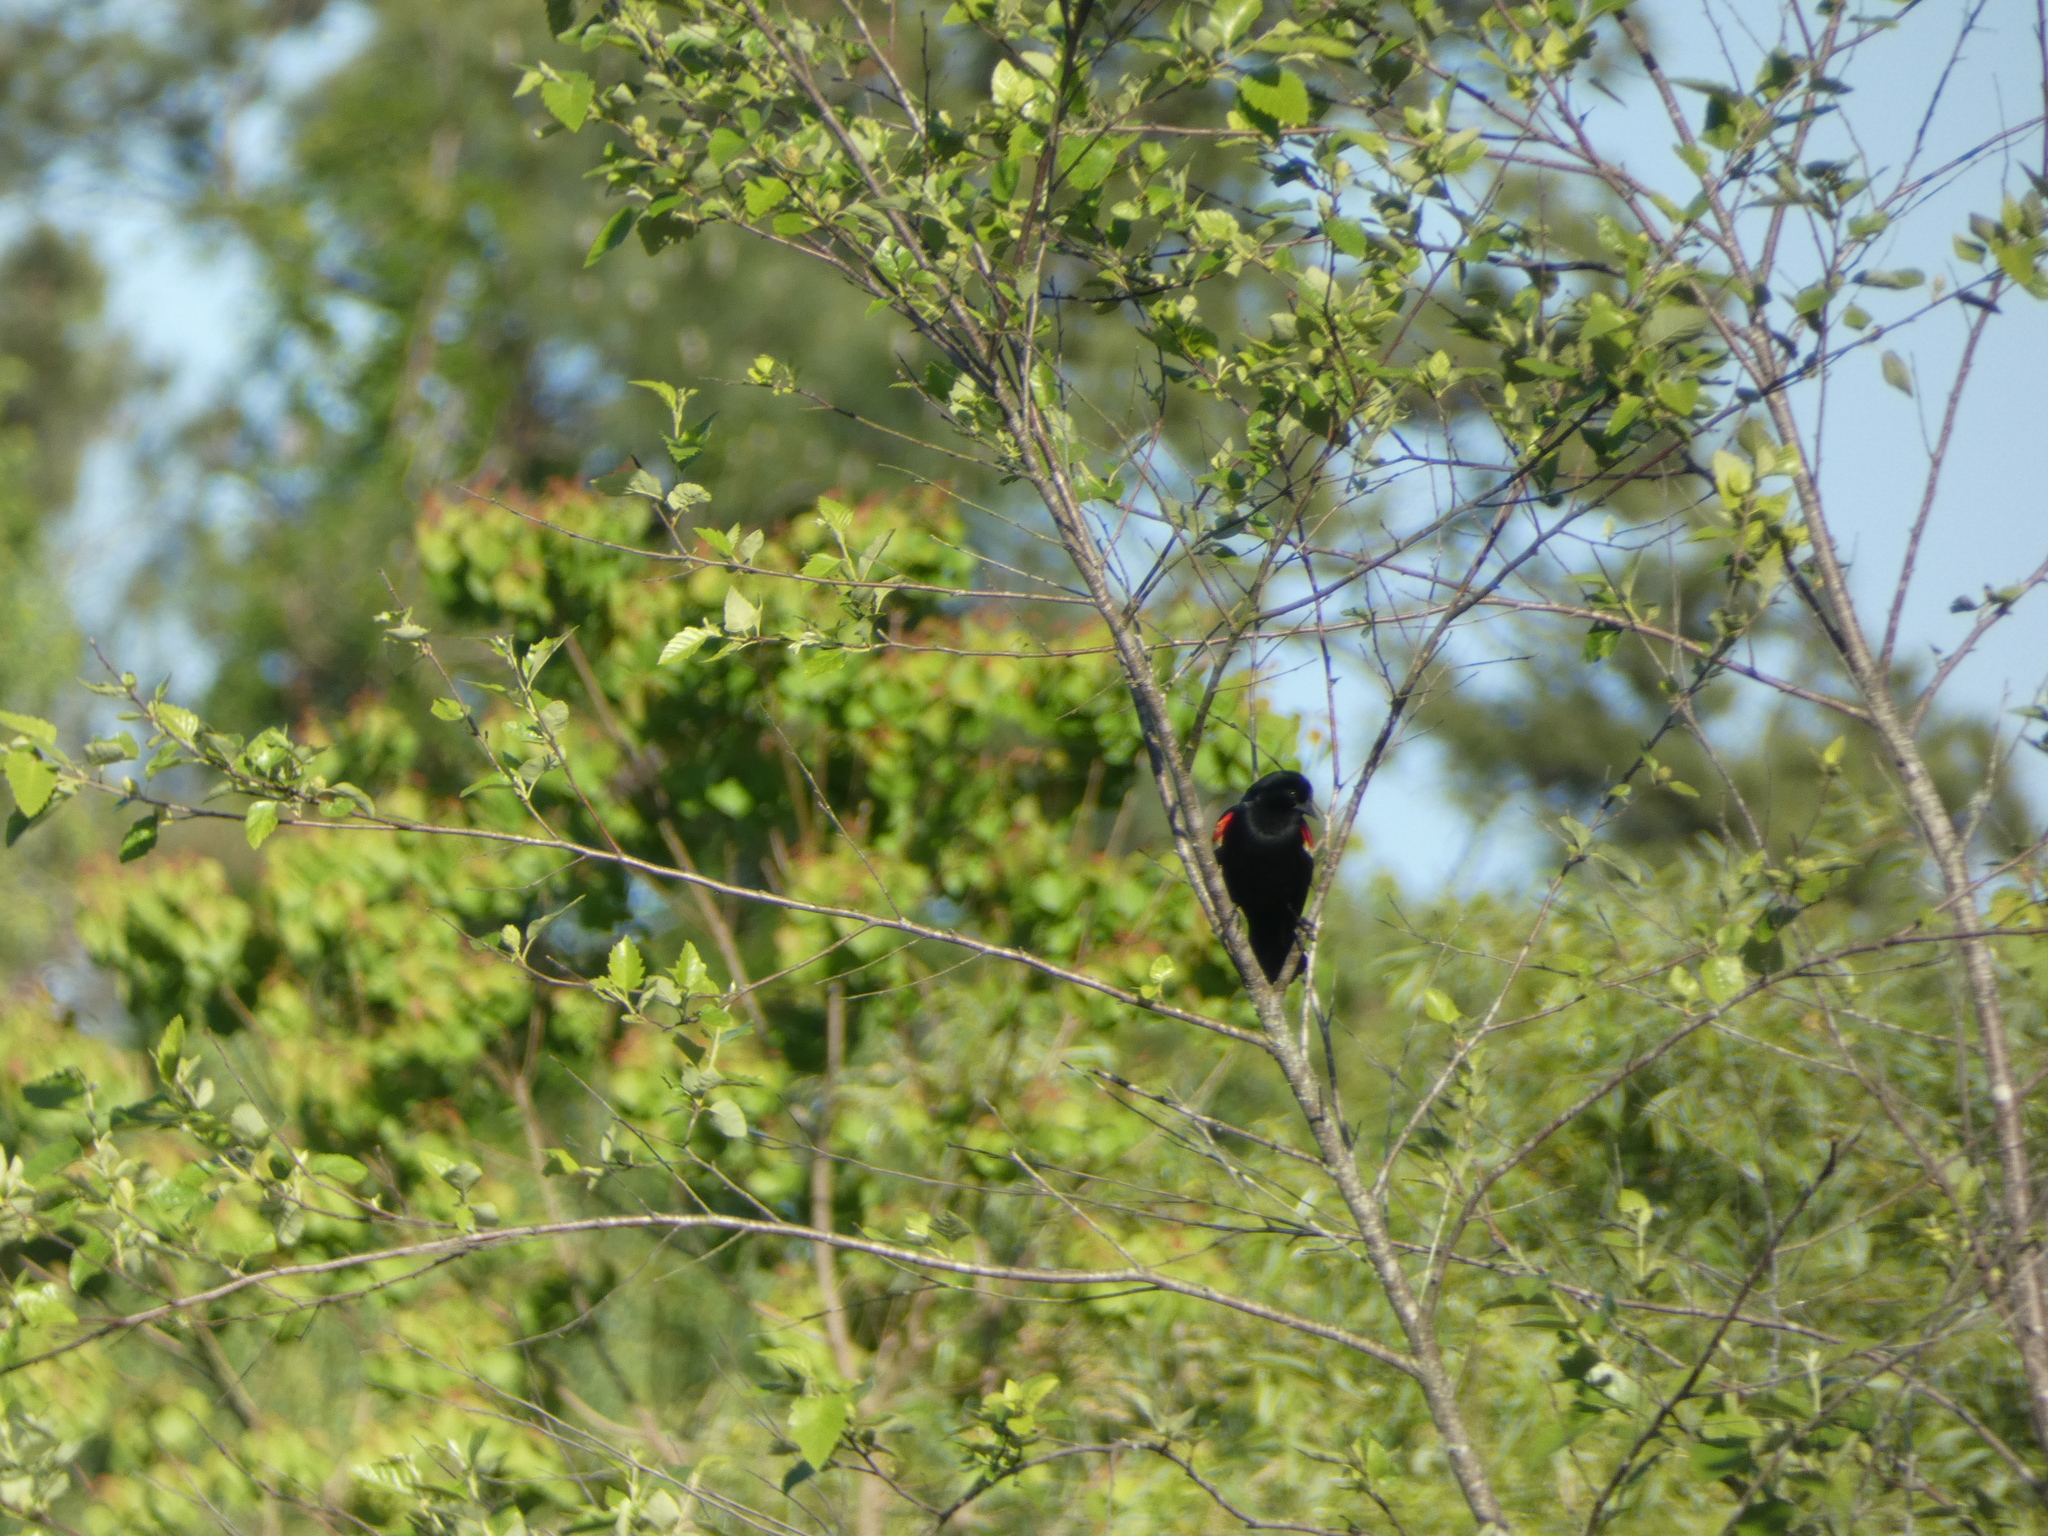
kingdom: Animalia
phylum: Chordata
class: Aves
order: Passeriformes
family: Icteridae
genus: Agelaius
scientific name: Agelaius phoeniceus
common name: Red-winged blackbird
